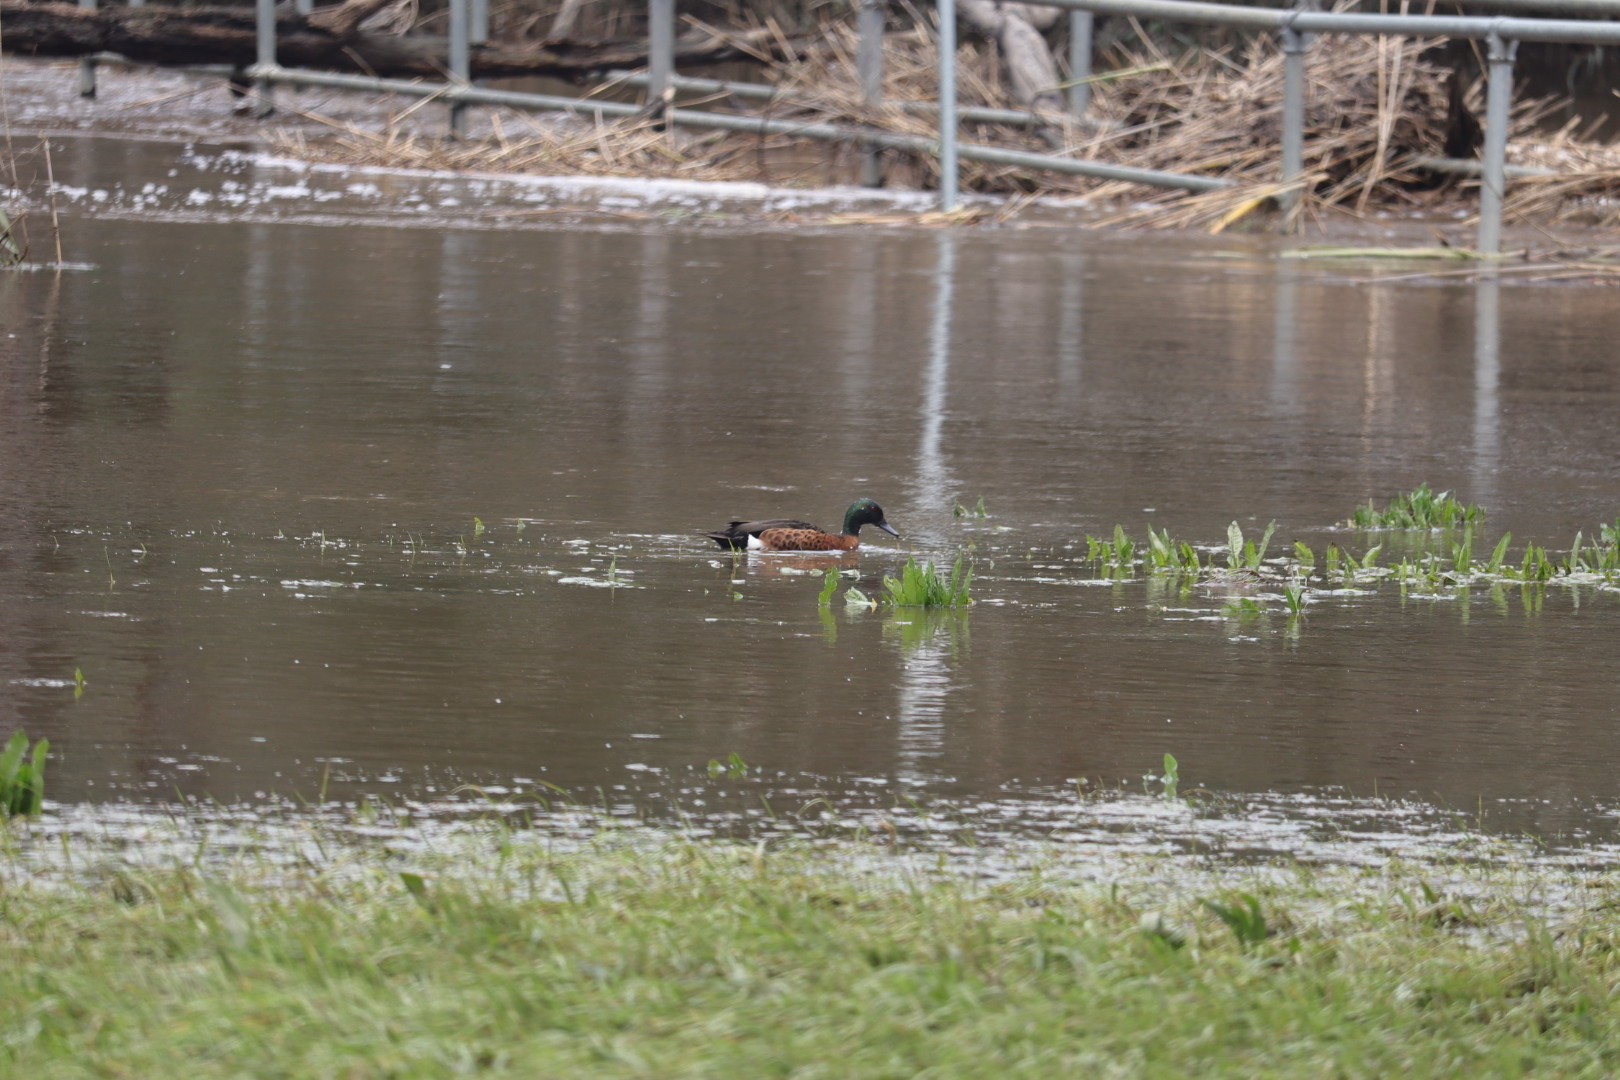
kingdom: Animalia
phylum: Chordata
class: Aves
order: Anseriformes
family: Anatidae
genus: Anas
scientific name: Anas castanea
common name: Chestnut teal
